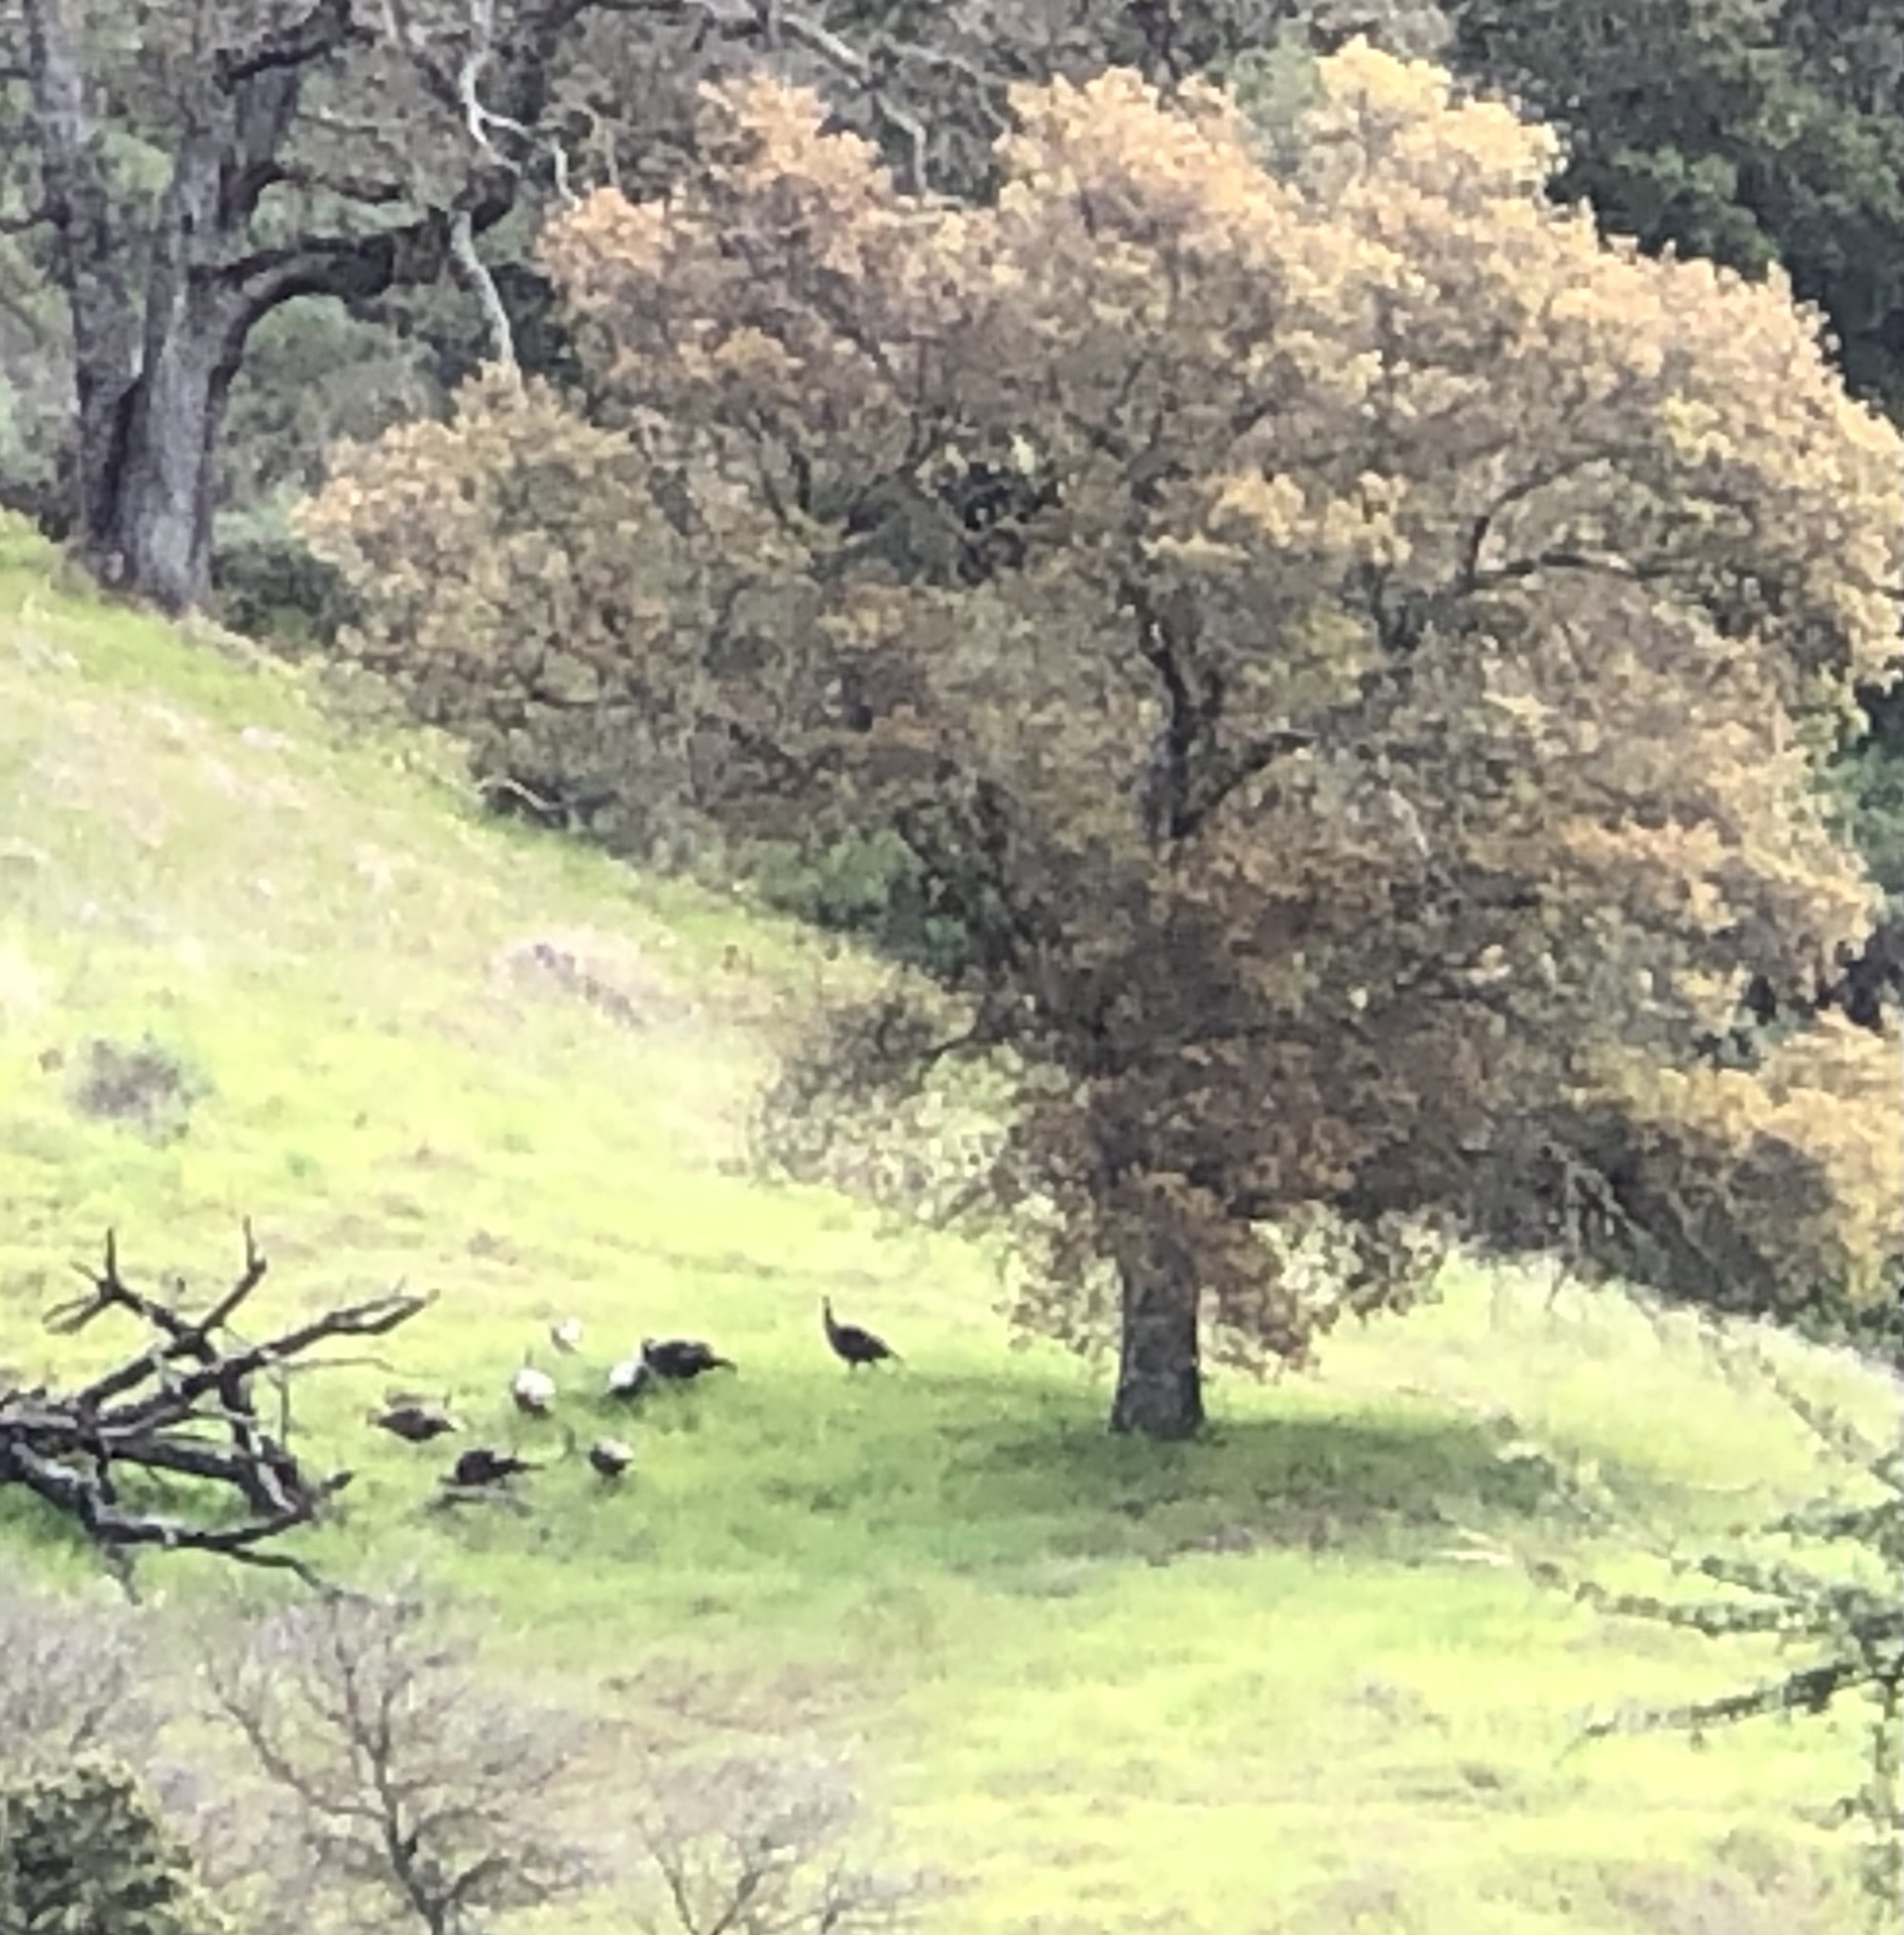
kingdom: Animalia
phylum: Chordata
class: Aves
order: Galliformes
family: Phasianidae
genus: Meleagris
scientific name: Meleagris gallopavo
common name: Wild turkey
